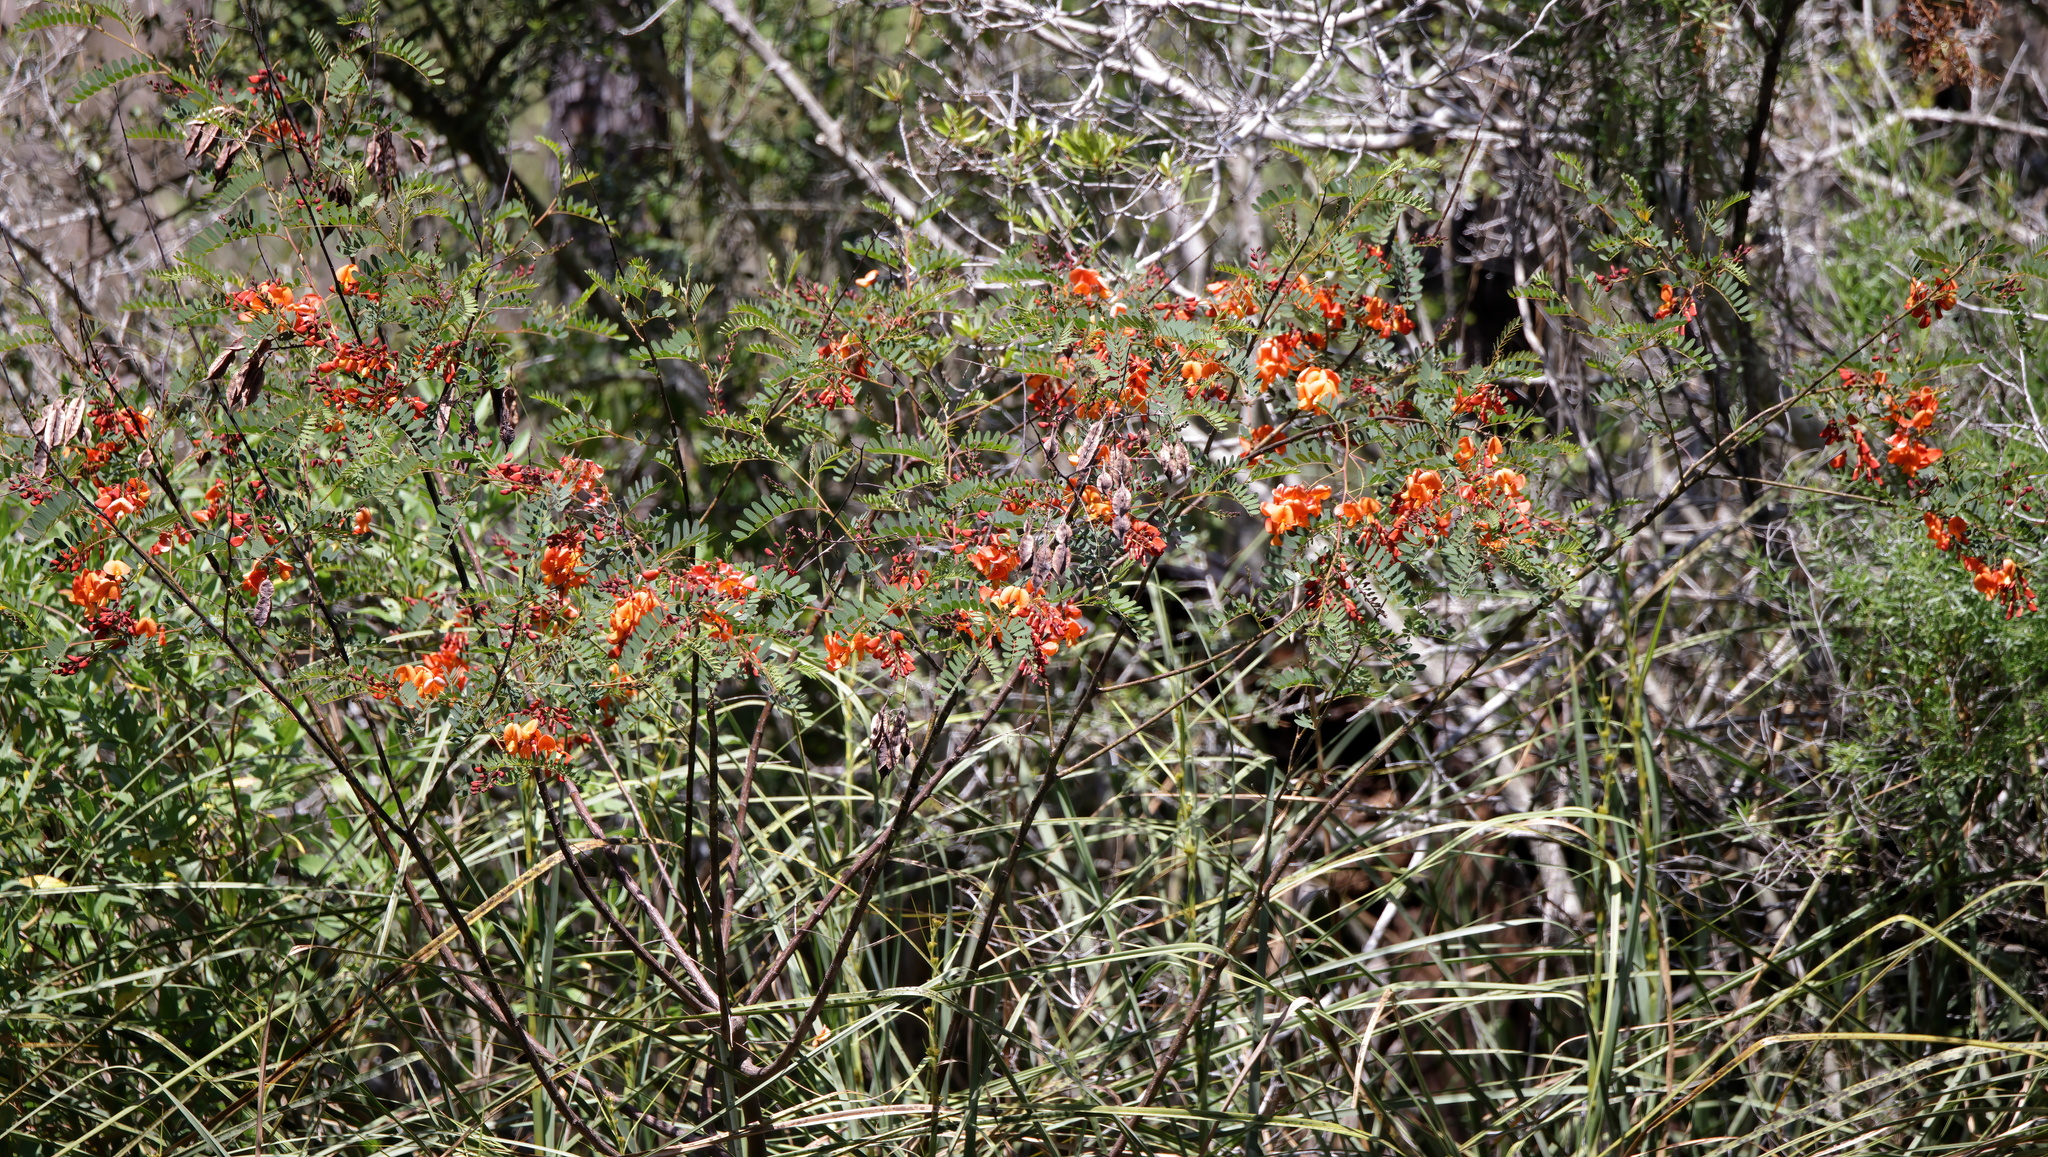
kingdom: Plantae
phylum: Tracheophyta
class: Magnoliopsida
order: Fabales
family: Fabaceae
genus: Sesbania
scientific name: Sesbania punicea
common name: Rattlebox
